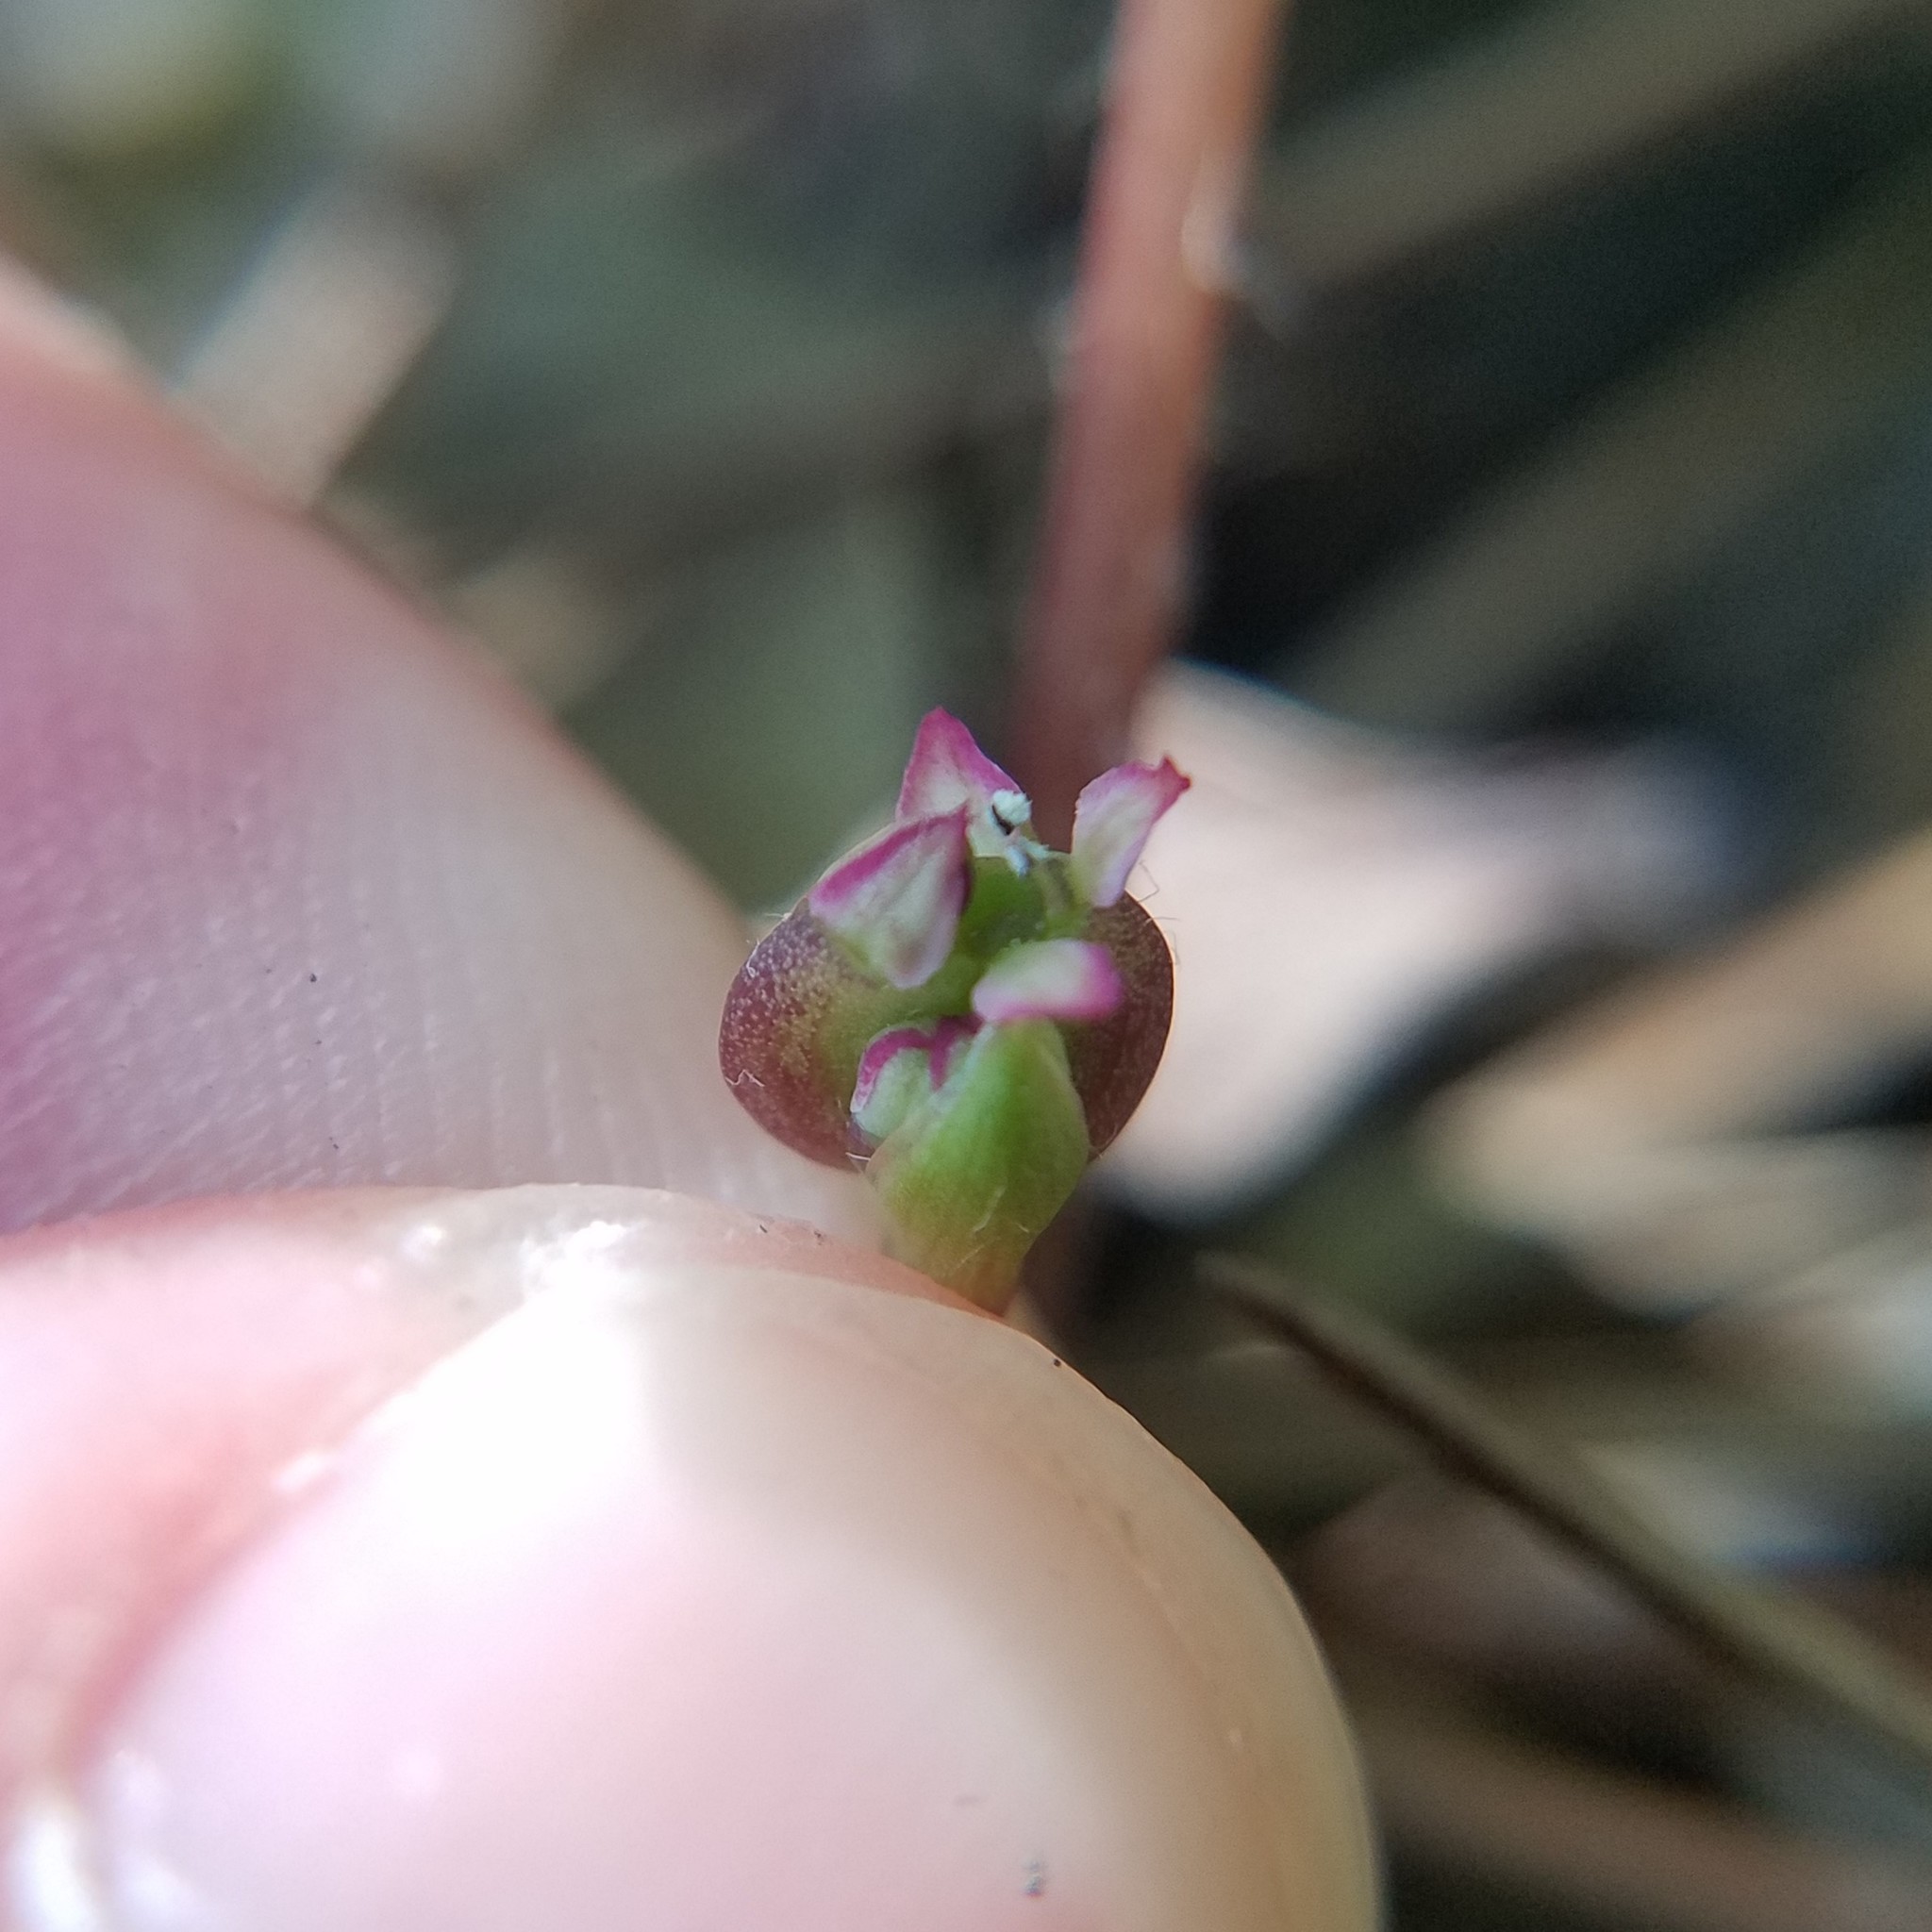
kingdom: Plantae
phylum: Tracheophyta
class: Magnoliopsida
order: Apiales
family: Apiaceae
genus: Centella
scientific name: Centella erecta
